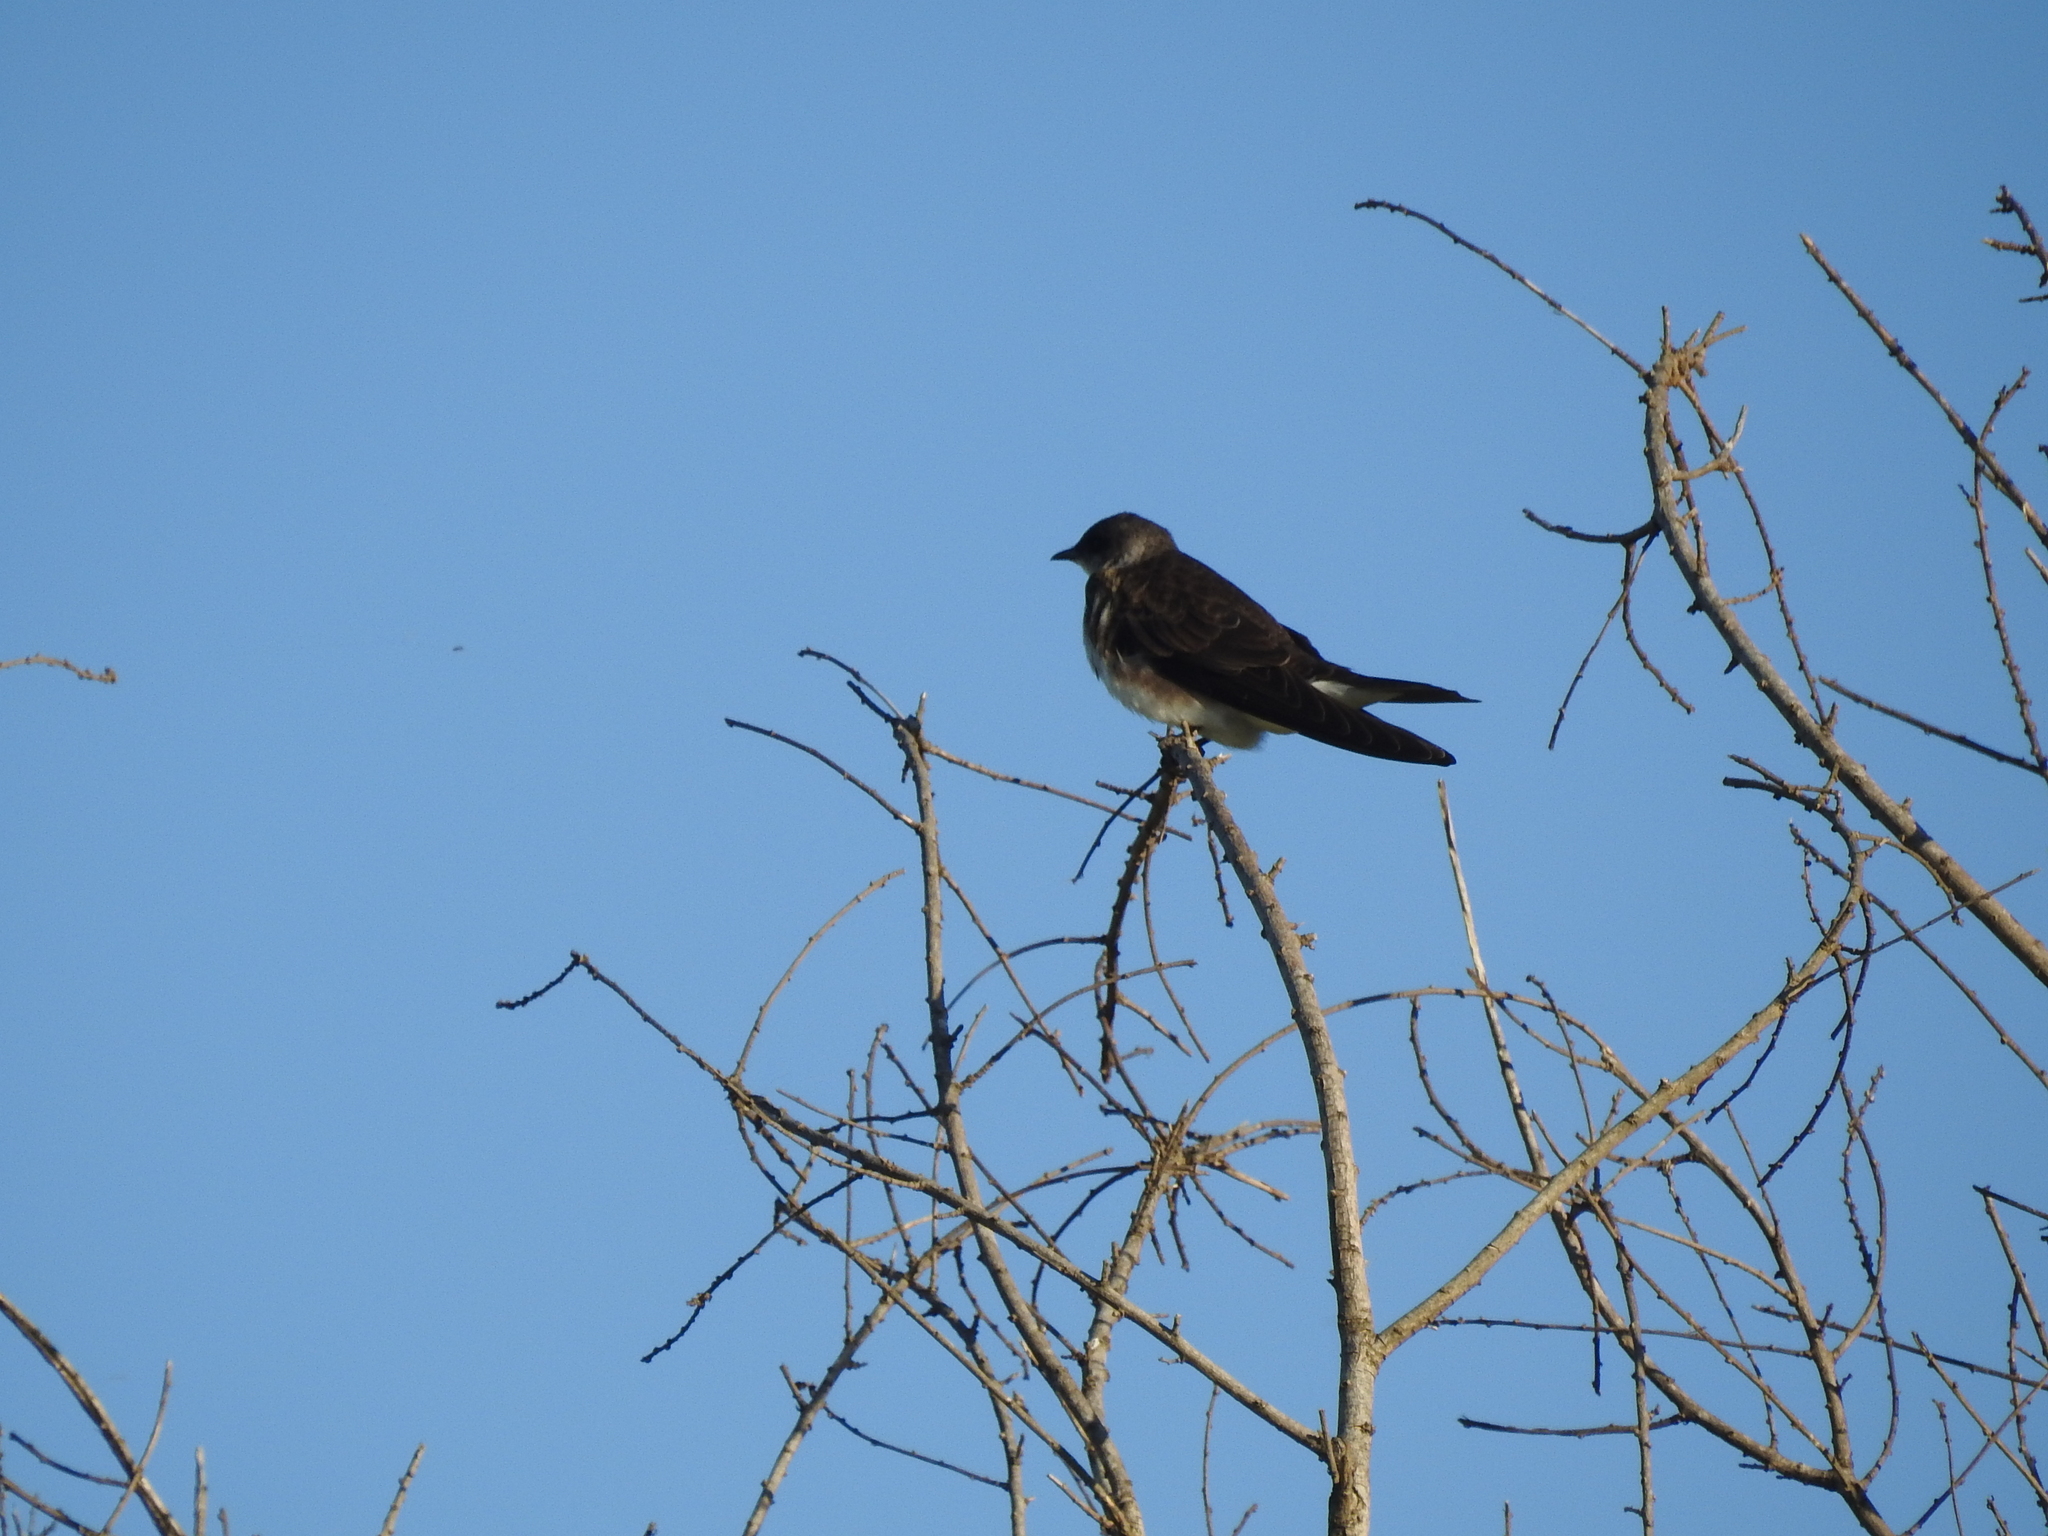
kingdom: Animalia
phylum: Chordata
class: Aves
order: Passeriformes
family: Hirundinidae
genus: Progne
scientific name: Progne tapera
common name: Brown-chested martin
